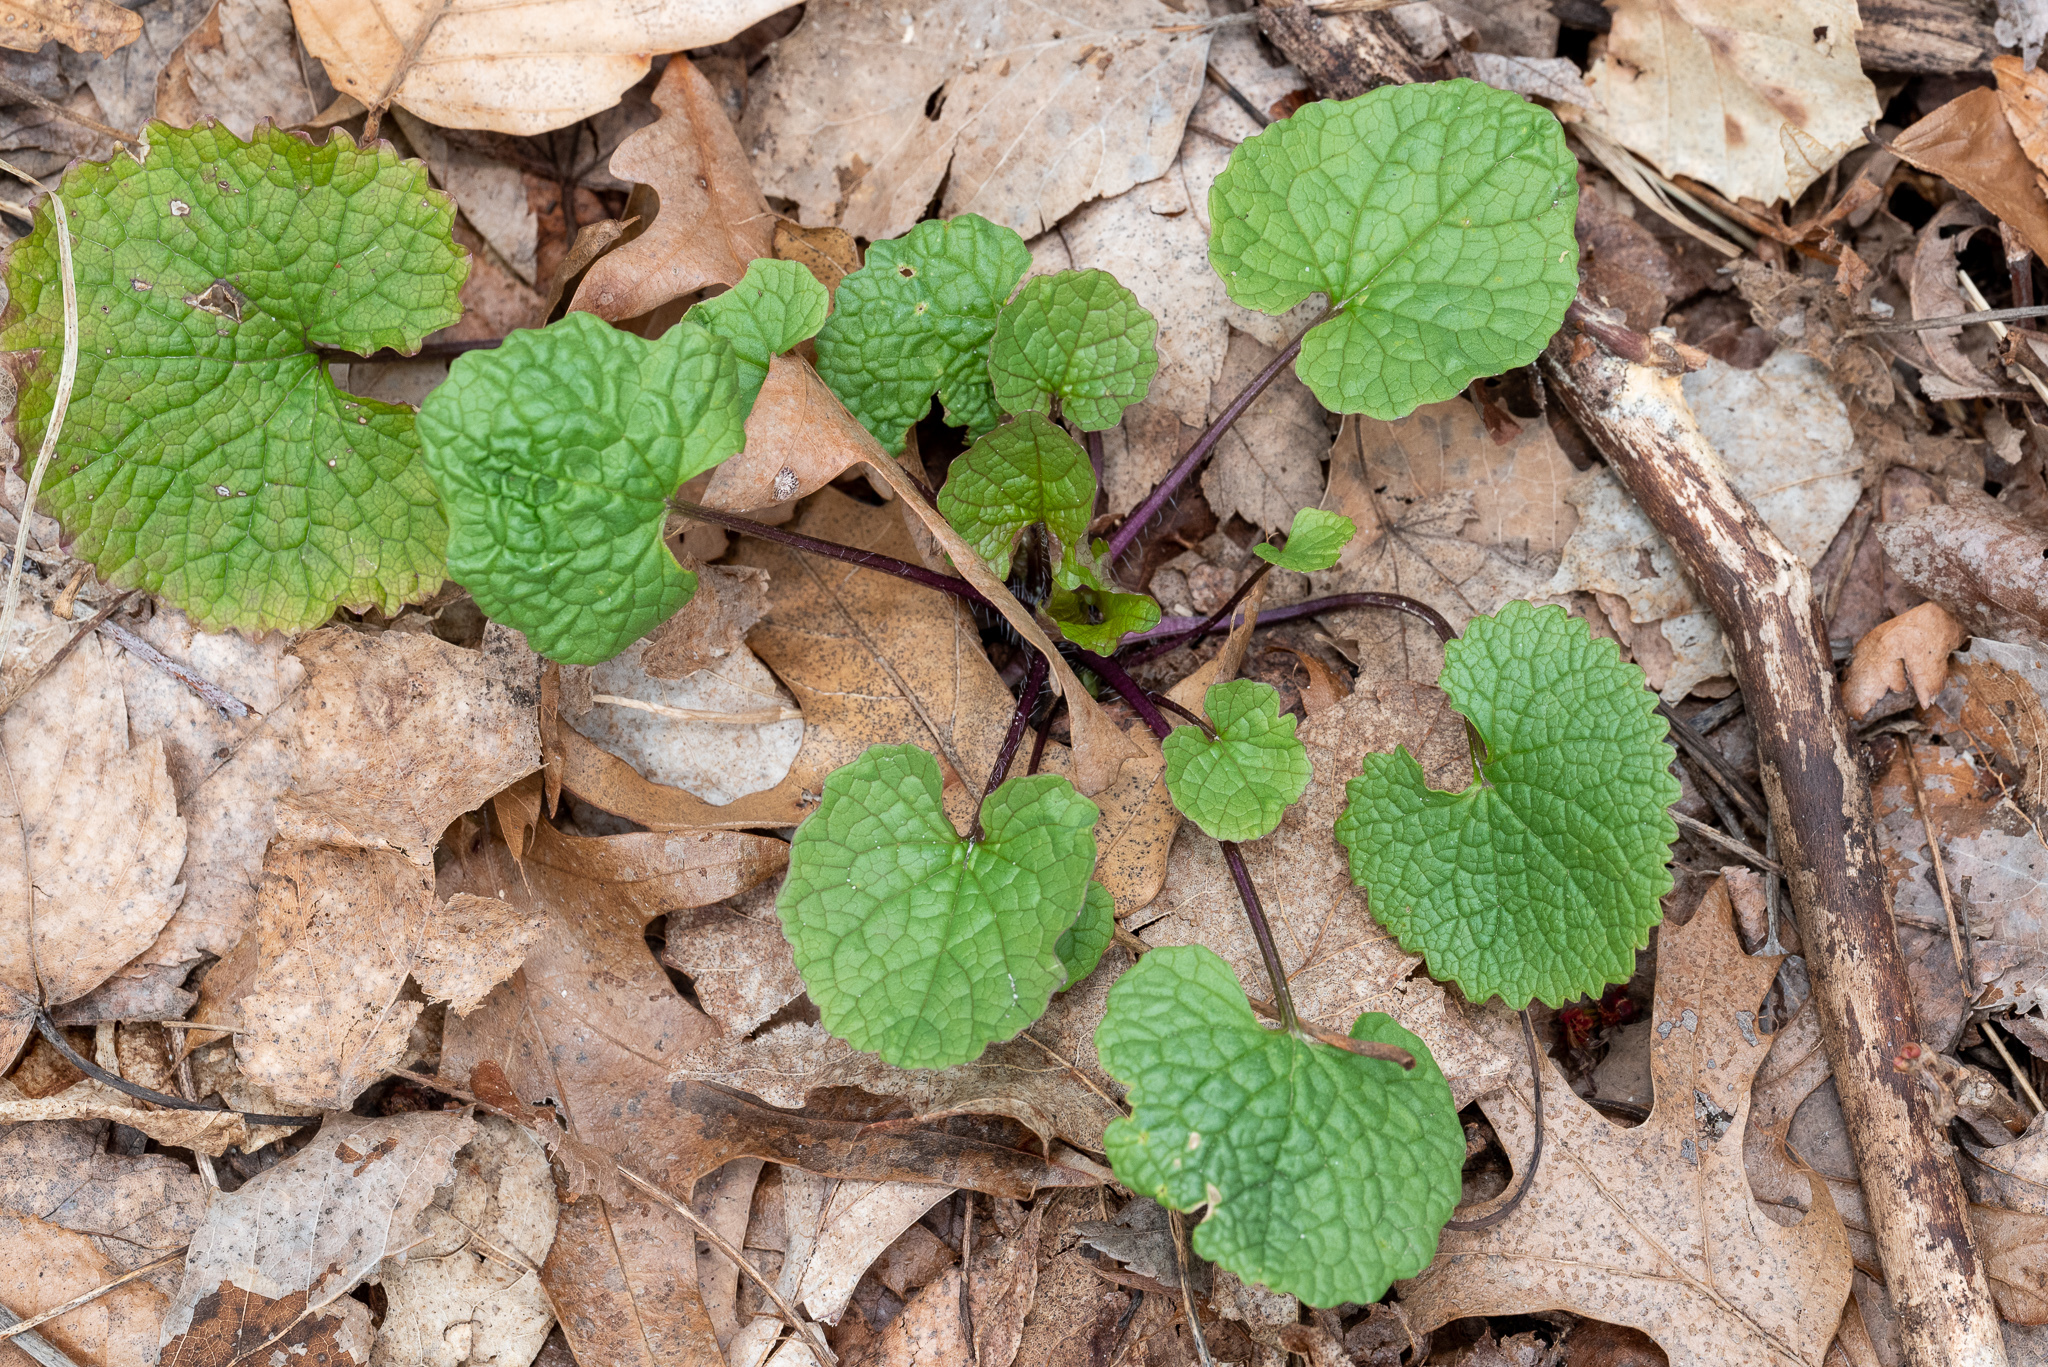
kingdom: Plantae
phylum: Tracheophyta
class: Magnoliopsida
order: Brassicales
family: Brassicaceae
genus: Alliaria
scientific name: Alliaria petiolata
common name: Garlic mustard
